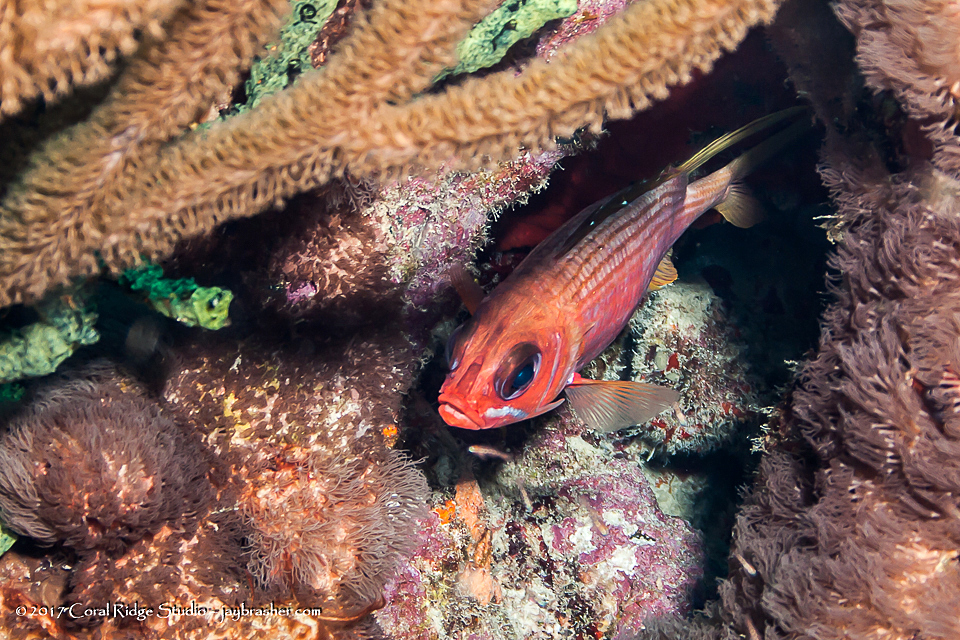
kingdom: Animalia
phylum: Chordata
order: Beryciformes
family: Holocentridae
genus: Holocentrus
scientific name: Holocentrus rufus
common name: Longspine squirrelfish
